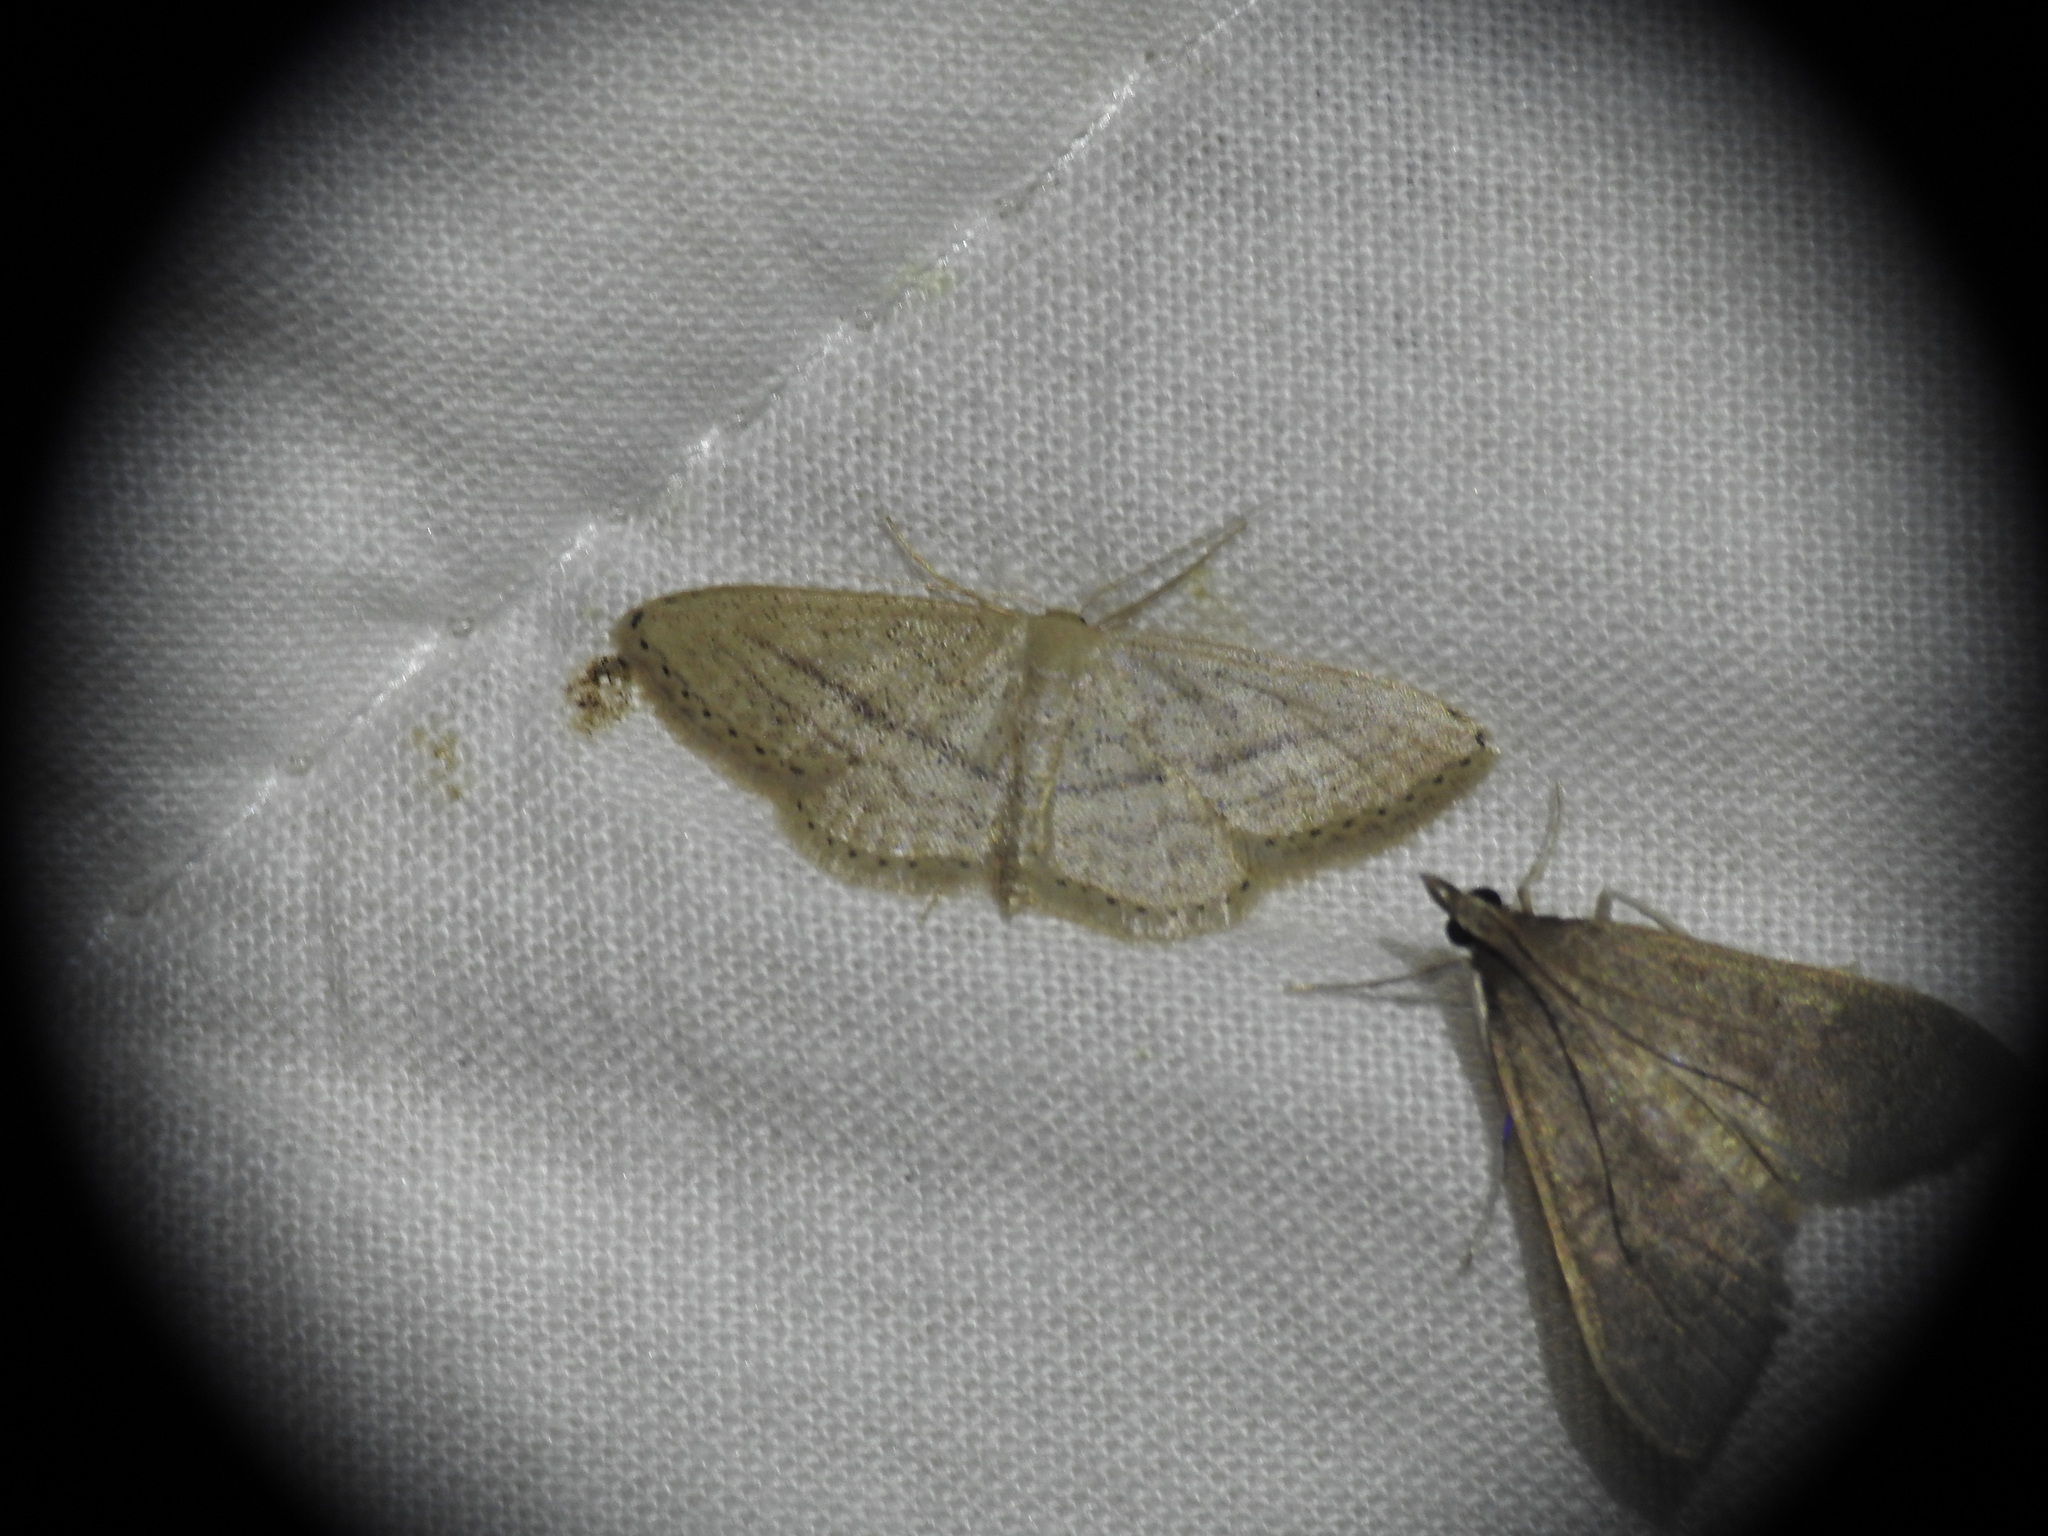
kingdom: Animalia
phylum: Arthropoda
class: Insecta
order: Lepidoptera
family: Geometridae
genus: Idaea
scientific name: Idaea mediaria
